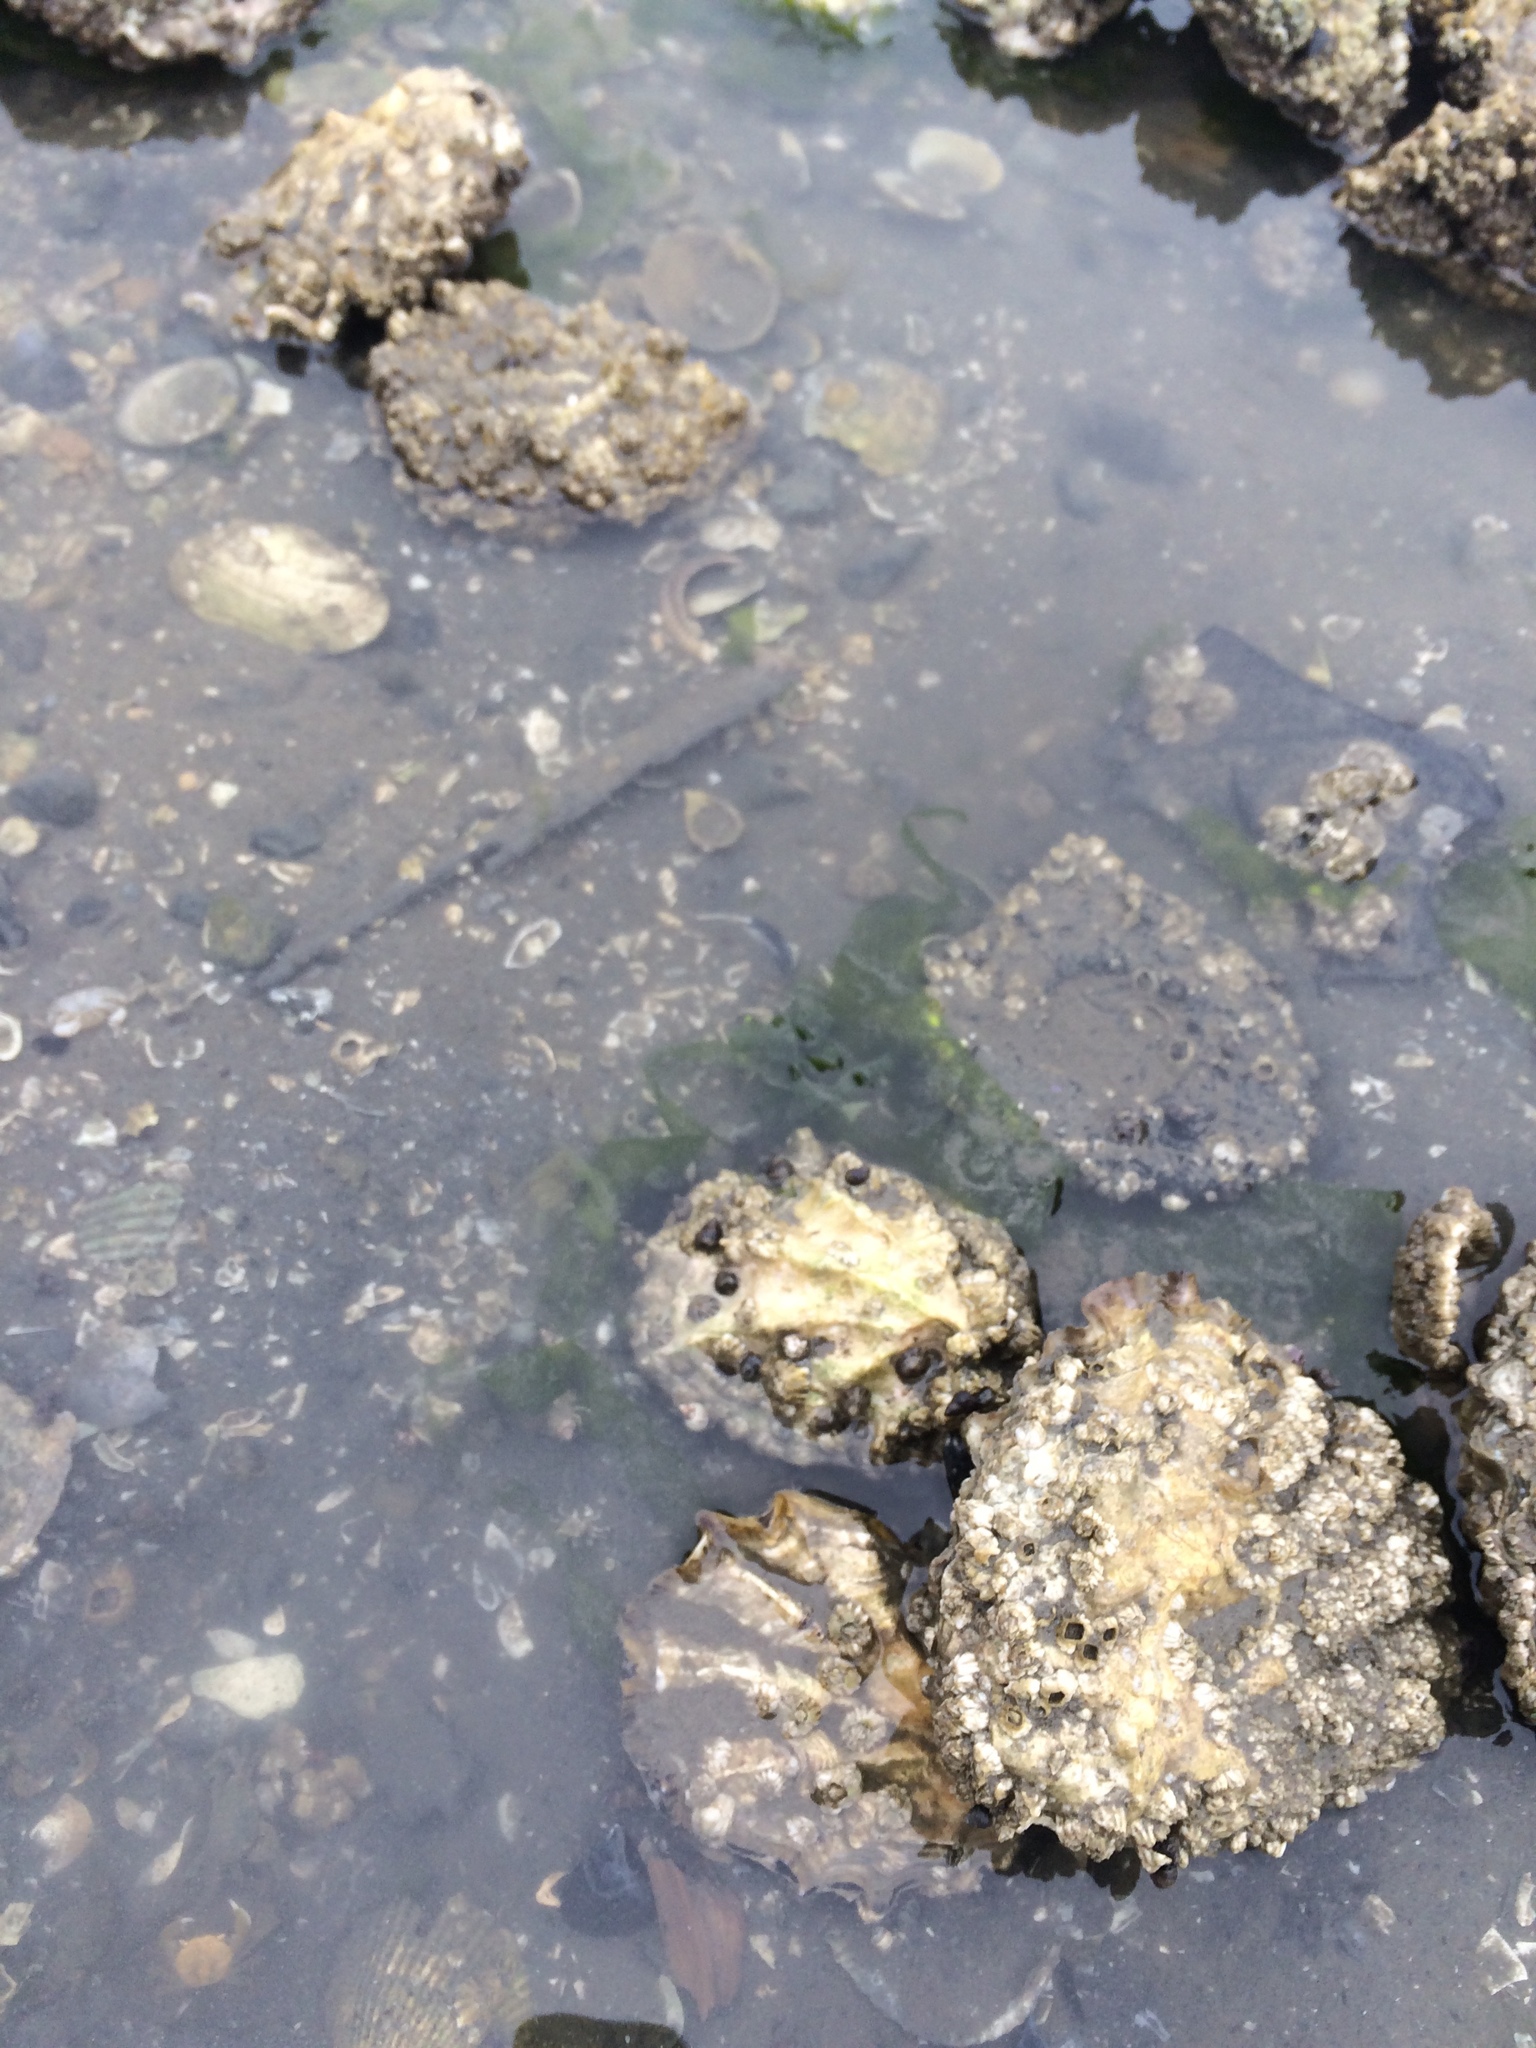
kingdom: Animalia
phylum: Mollusca
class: Bivalvia
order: Ostreida
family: Ostreidae
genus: Magallana
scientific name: Magallana gigas
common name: Pacific oyster
